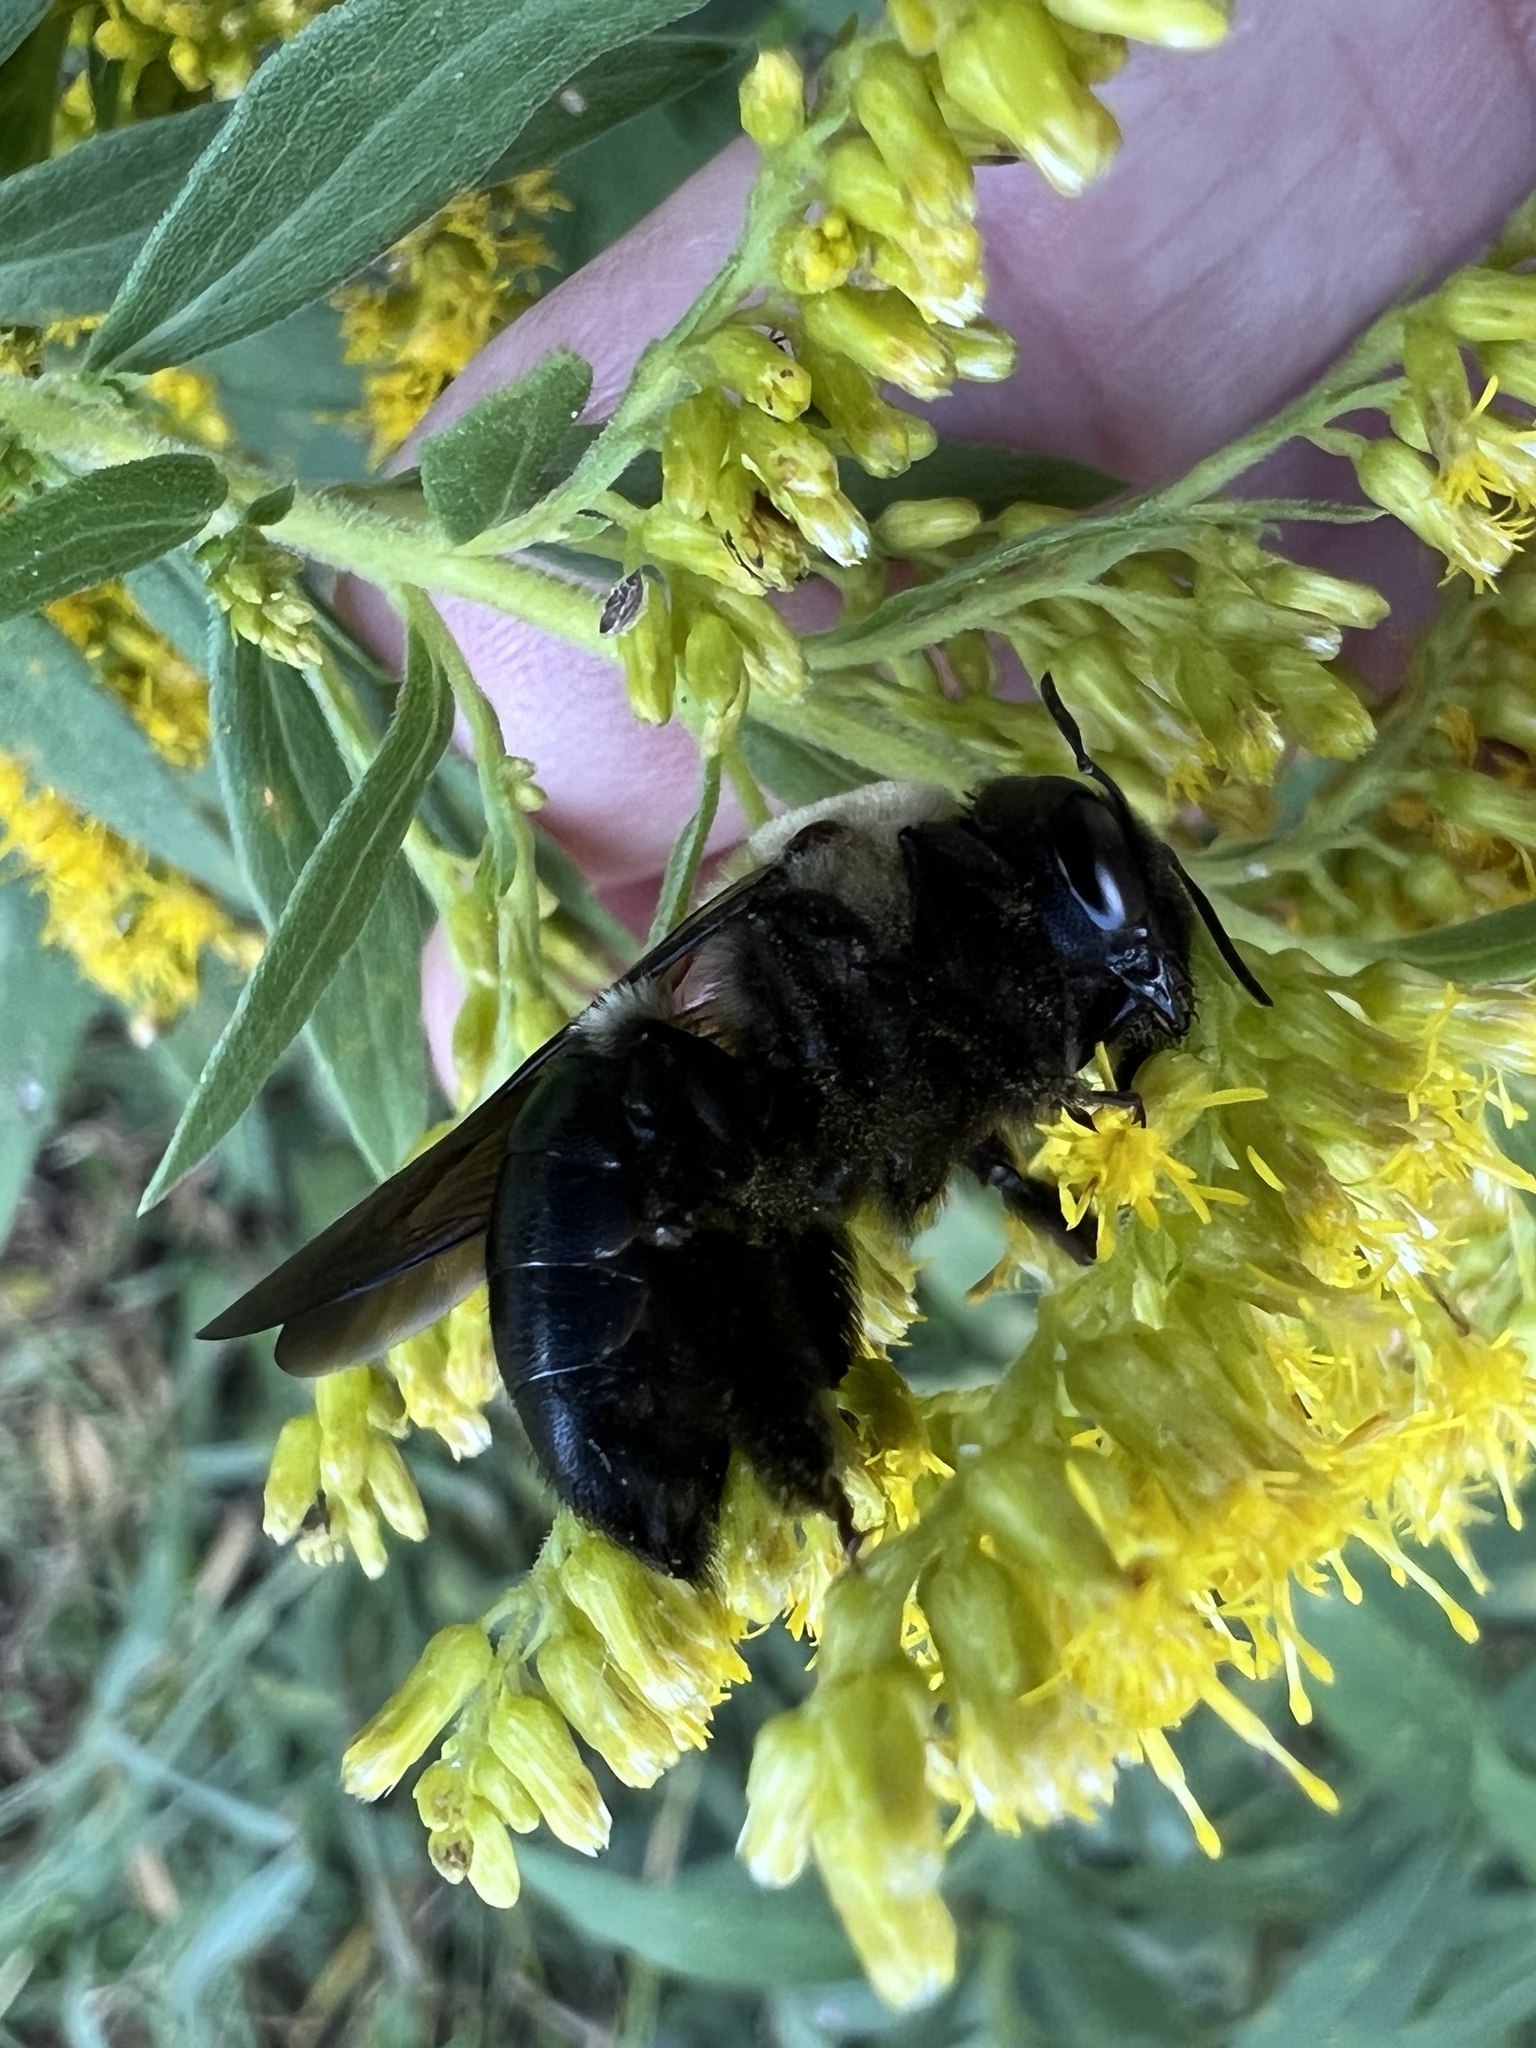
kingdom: Animalia
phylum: Arthropoda
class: Insecta
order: Hymenoptera
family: Apidae
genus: Xylocopa
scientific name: Xylocopa virginica
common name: Carpenter bee
